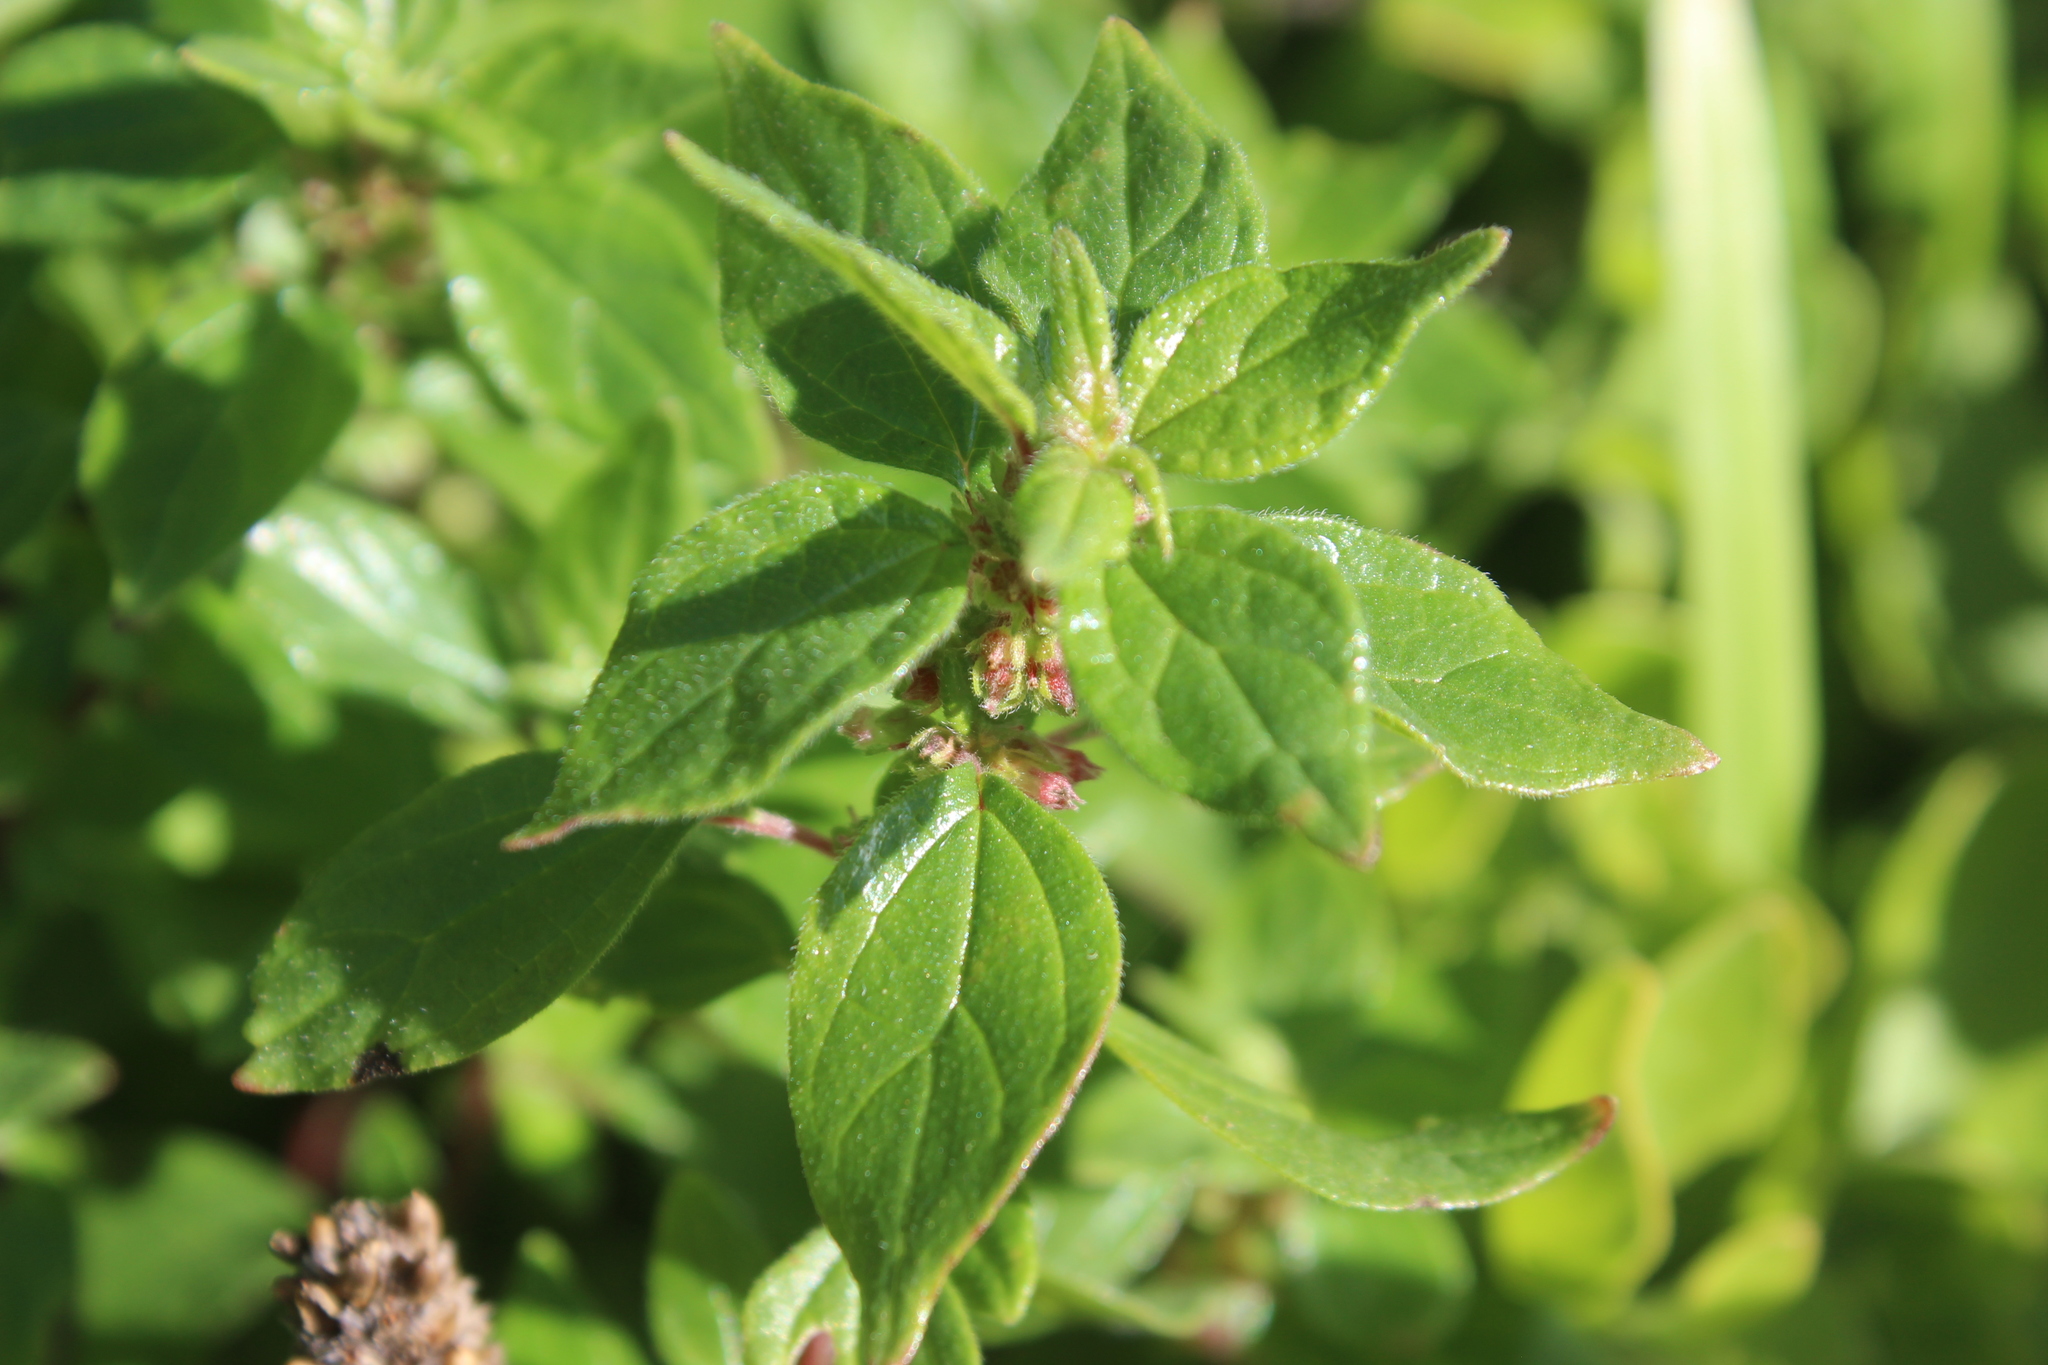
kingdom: Plantae
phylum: Tracheophyta
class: Magnoliopsida
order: Rosales
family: Urticaceae
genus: Parietaria
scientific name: Parietaria judaica
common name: Pellitory-of-the-wall
